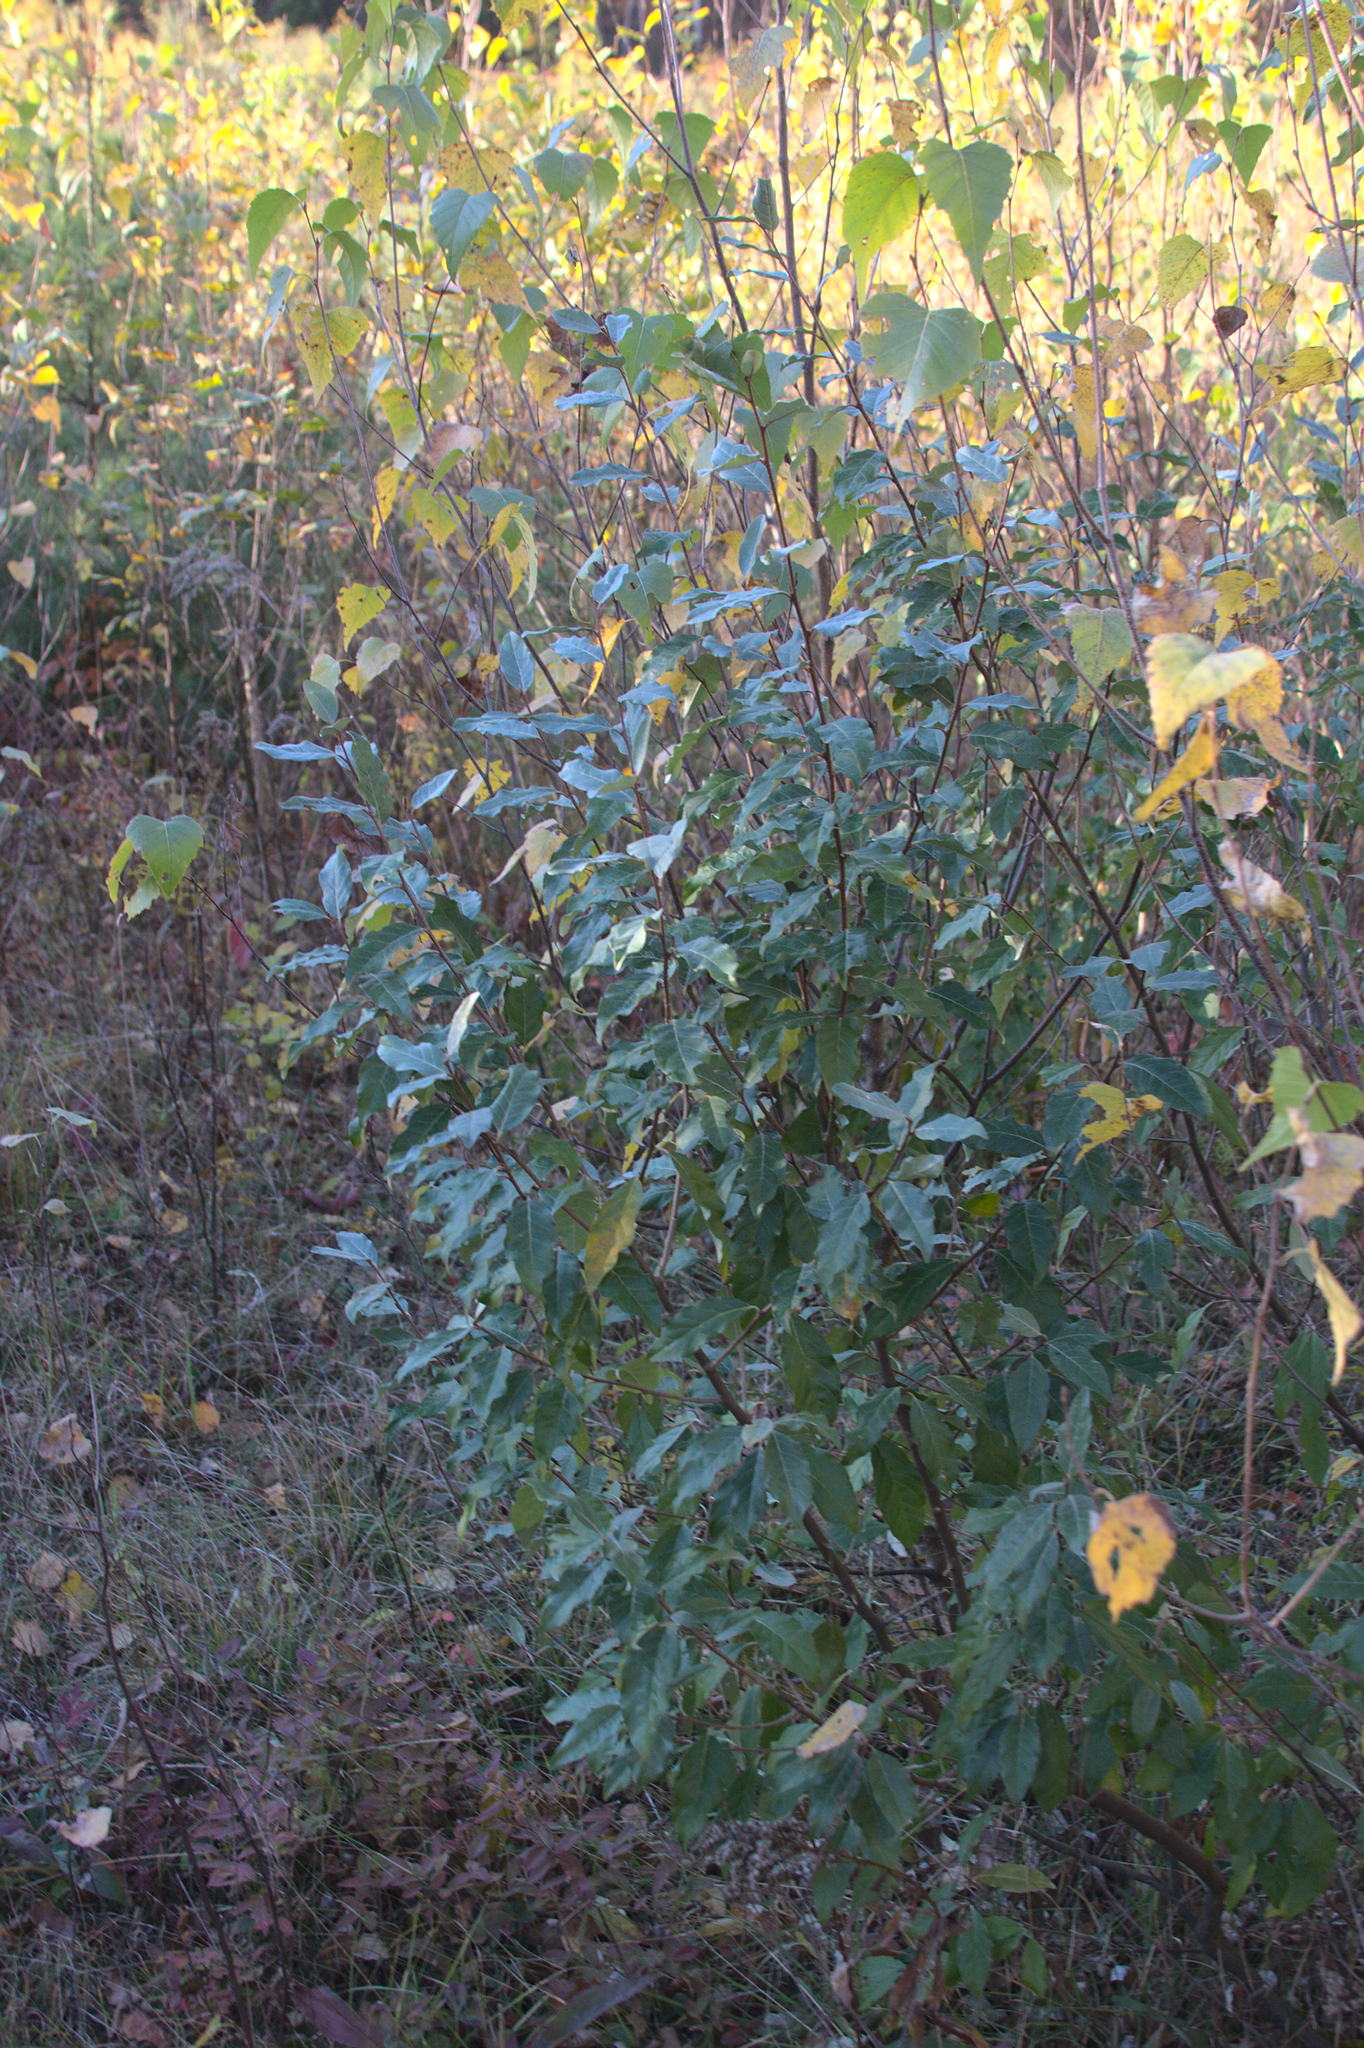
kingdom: Plantae
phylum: Tracheophyta
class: Magnoliopsida
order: Rosales
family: Elaeagnaceae
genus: Elaeagnus
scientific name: Elaeagnus umbellata
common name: Autumn olive
